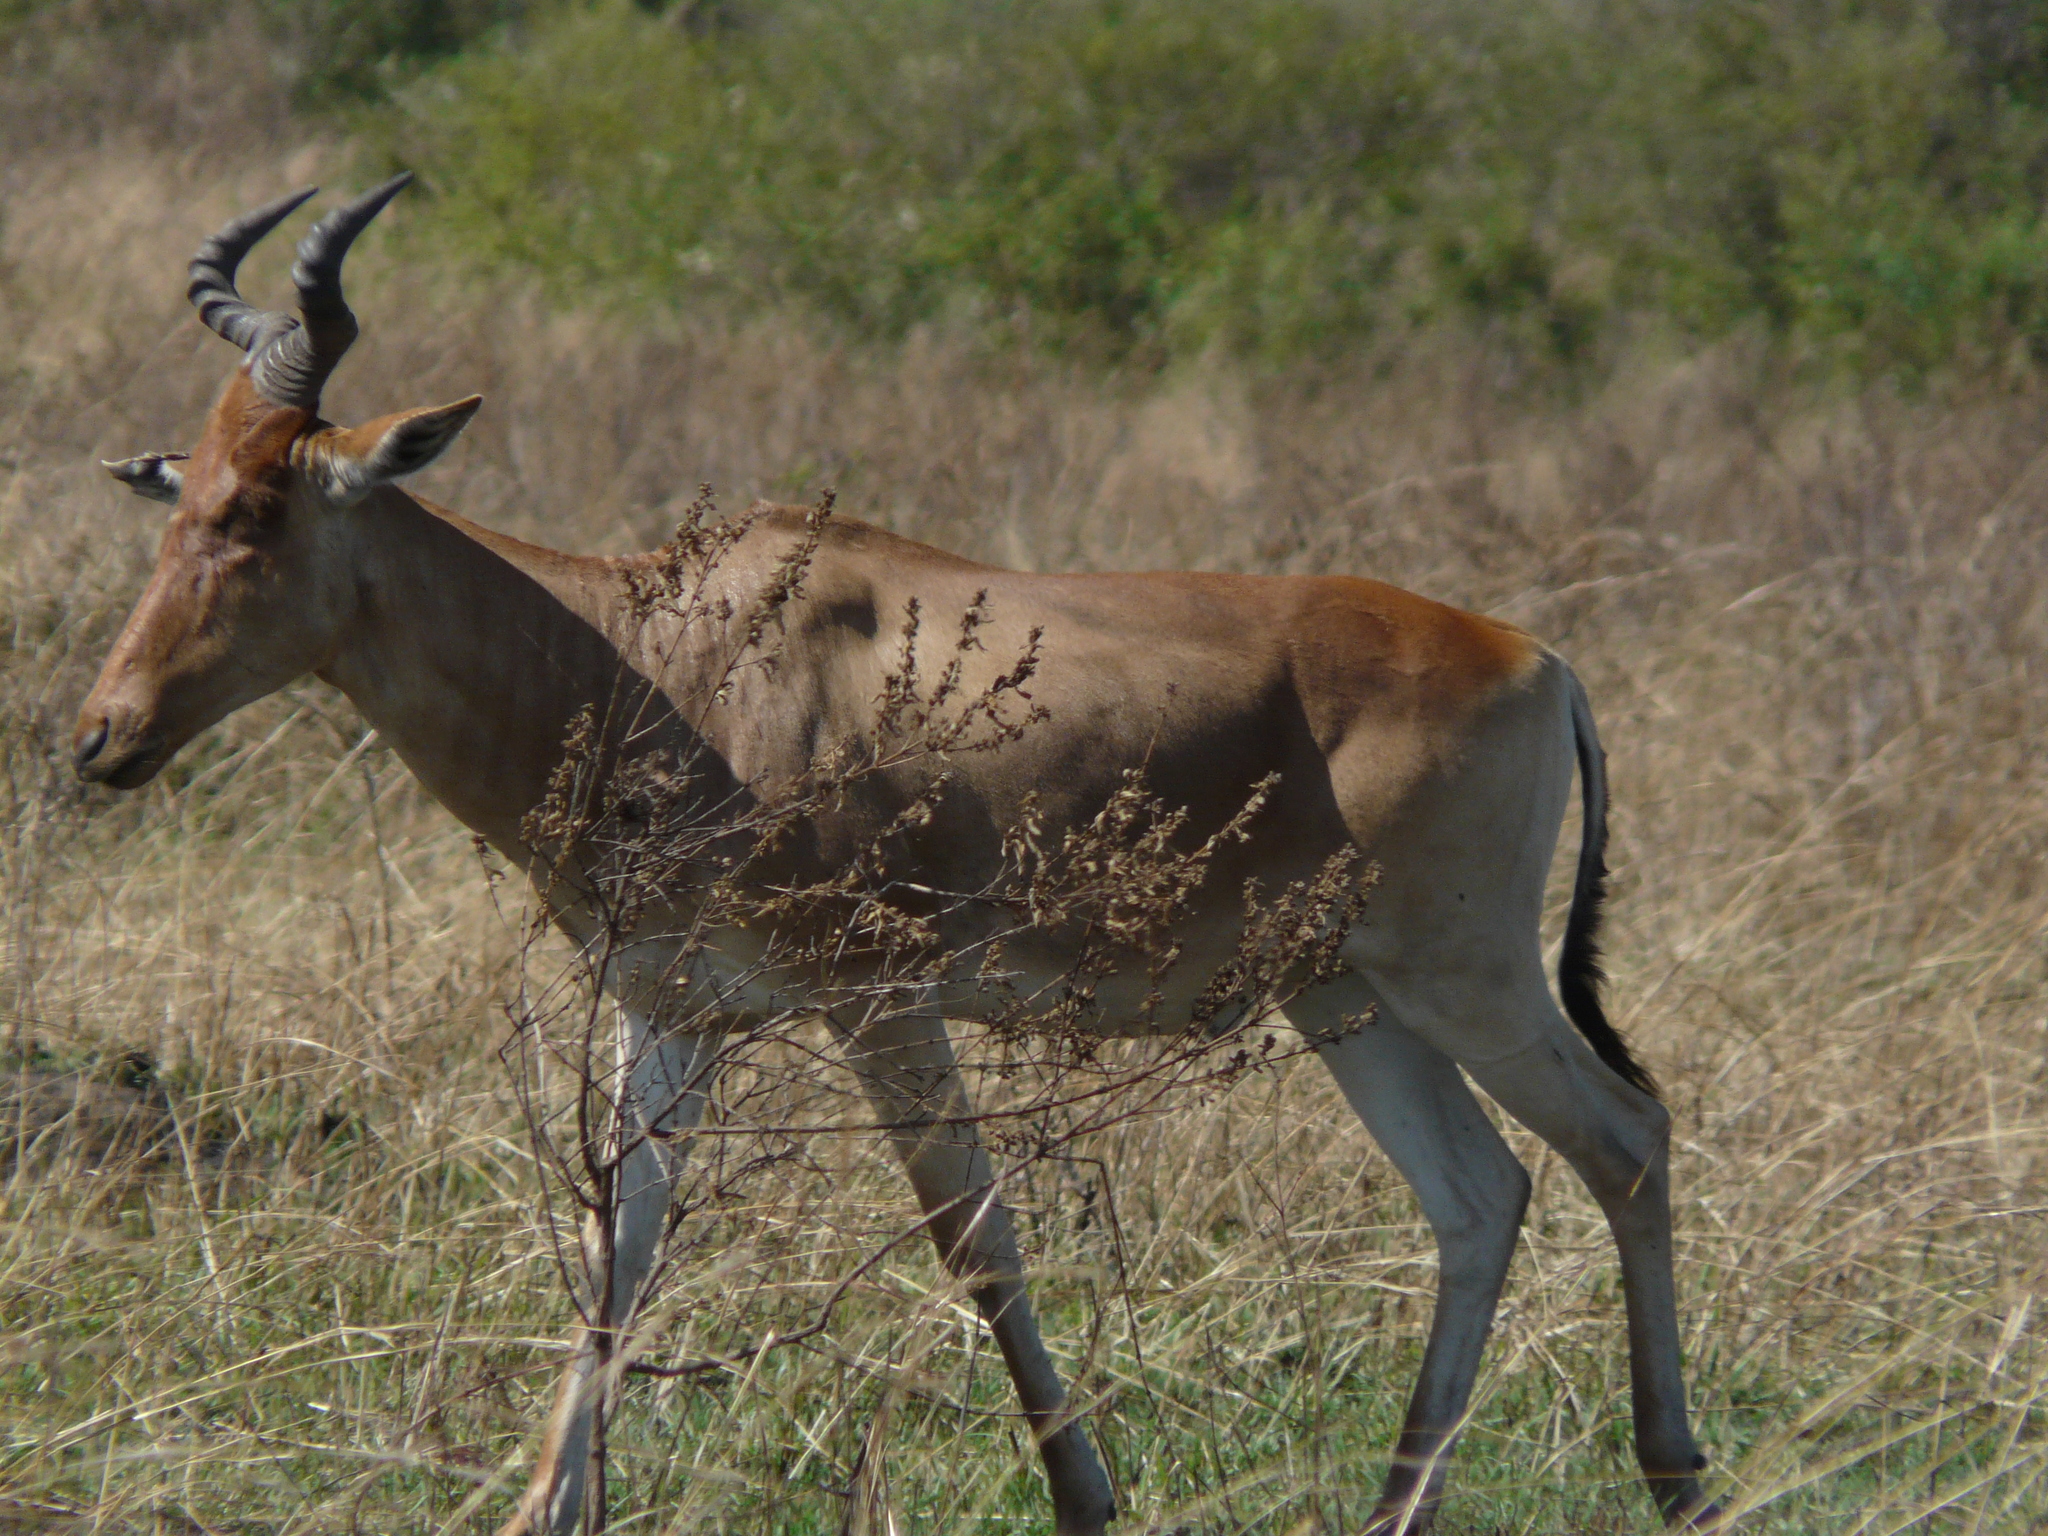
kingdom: Animalia
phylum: Chordata
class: Mammalia
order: Artiodactyla
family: Bovidae
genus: Alcelaphus
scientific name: Alcelaphus buselaphus
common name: Hartebeest
